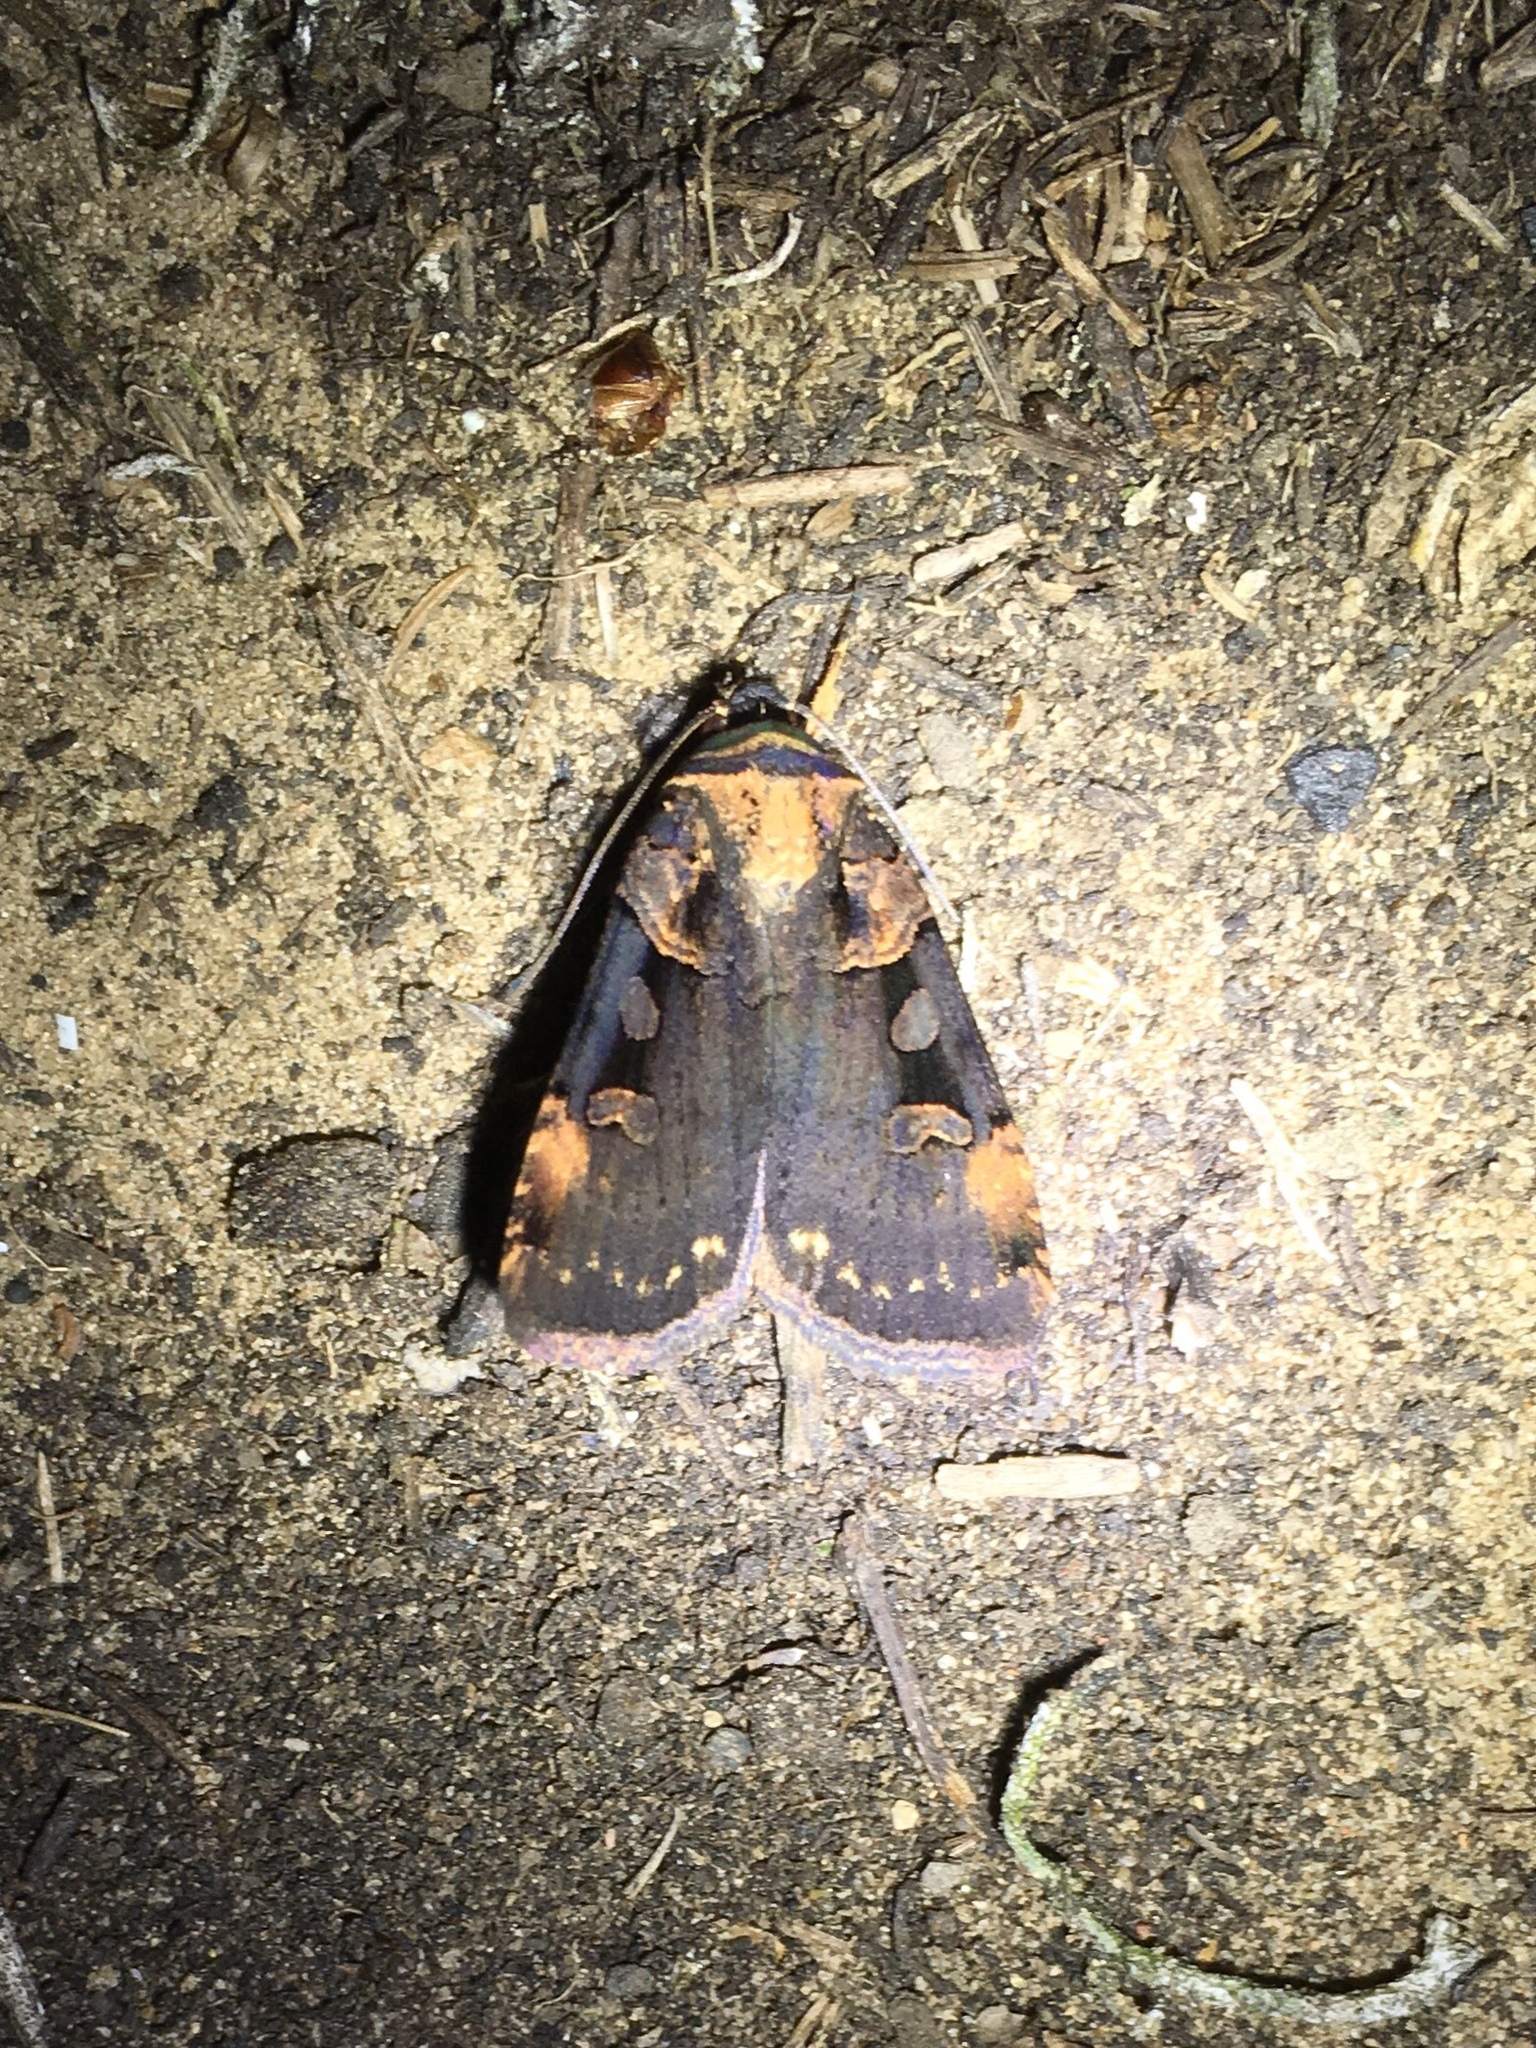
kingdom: Animalia
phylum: Arthropoda
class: Insecta
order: Lepidoptera
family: Noctuidae
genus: Pseudohermonassa
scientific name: Pseudohermonassa bicarnea
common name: Pink spotted dart
